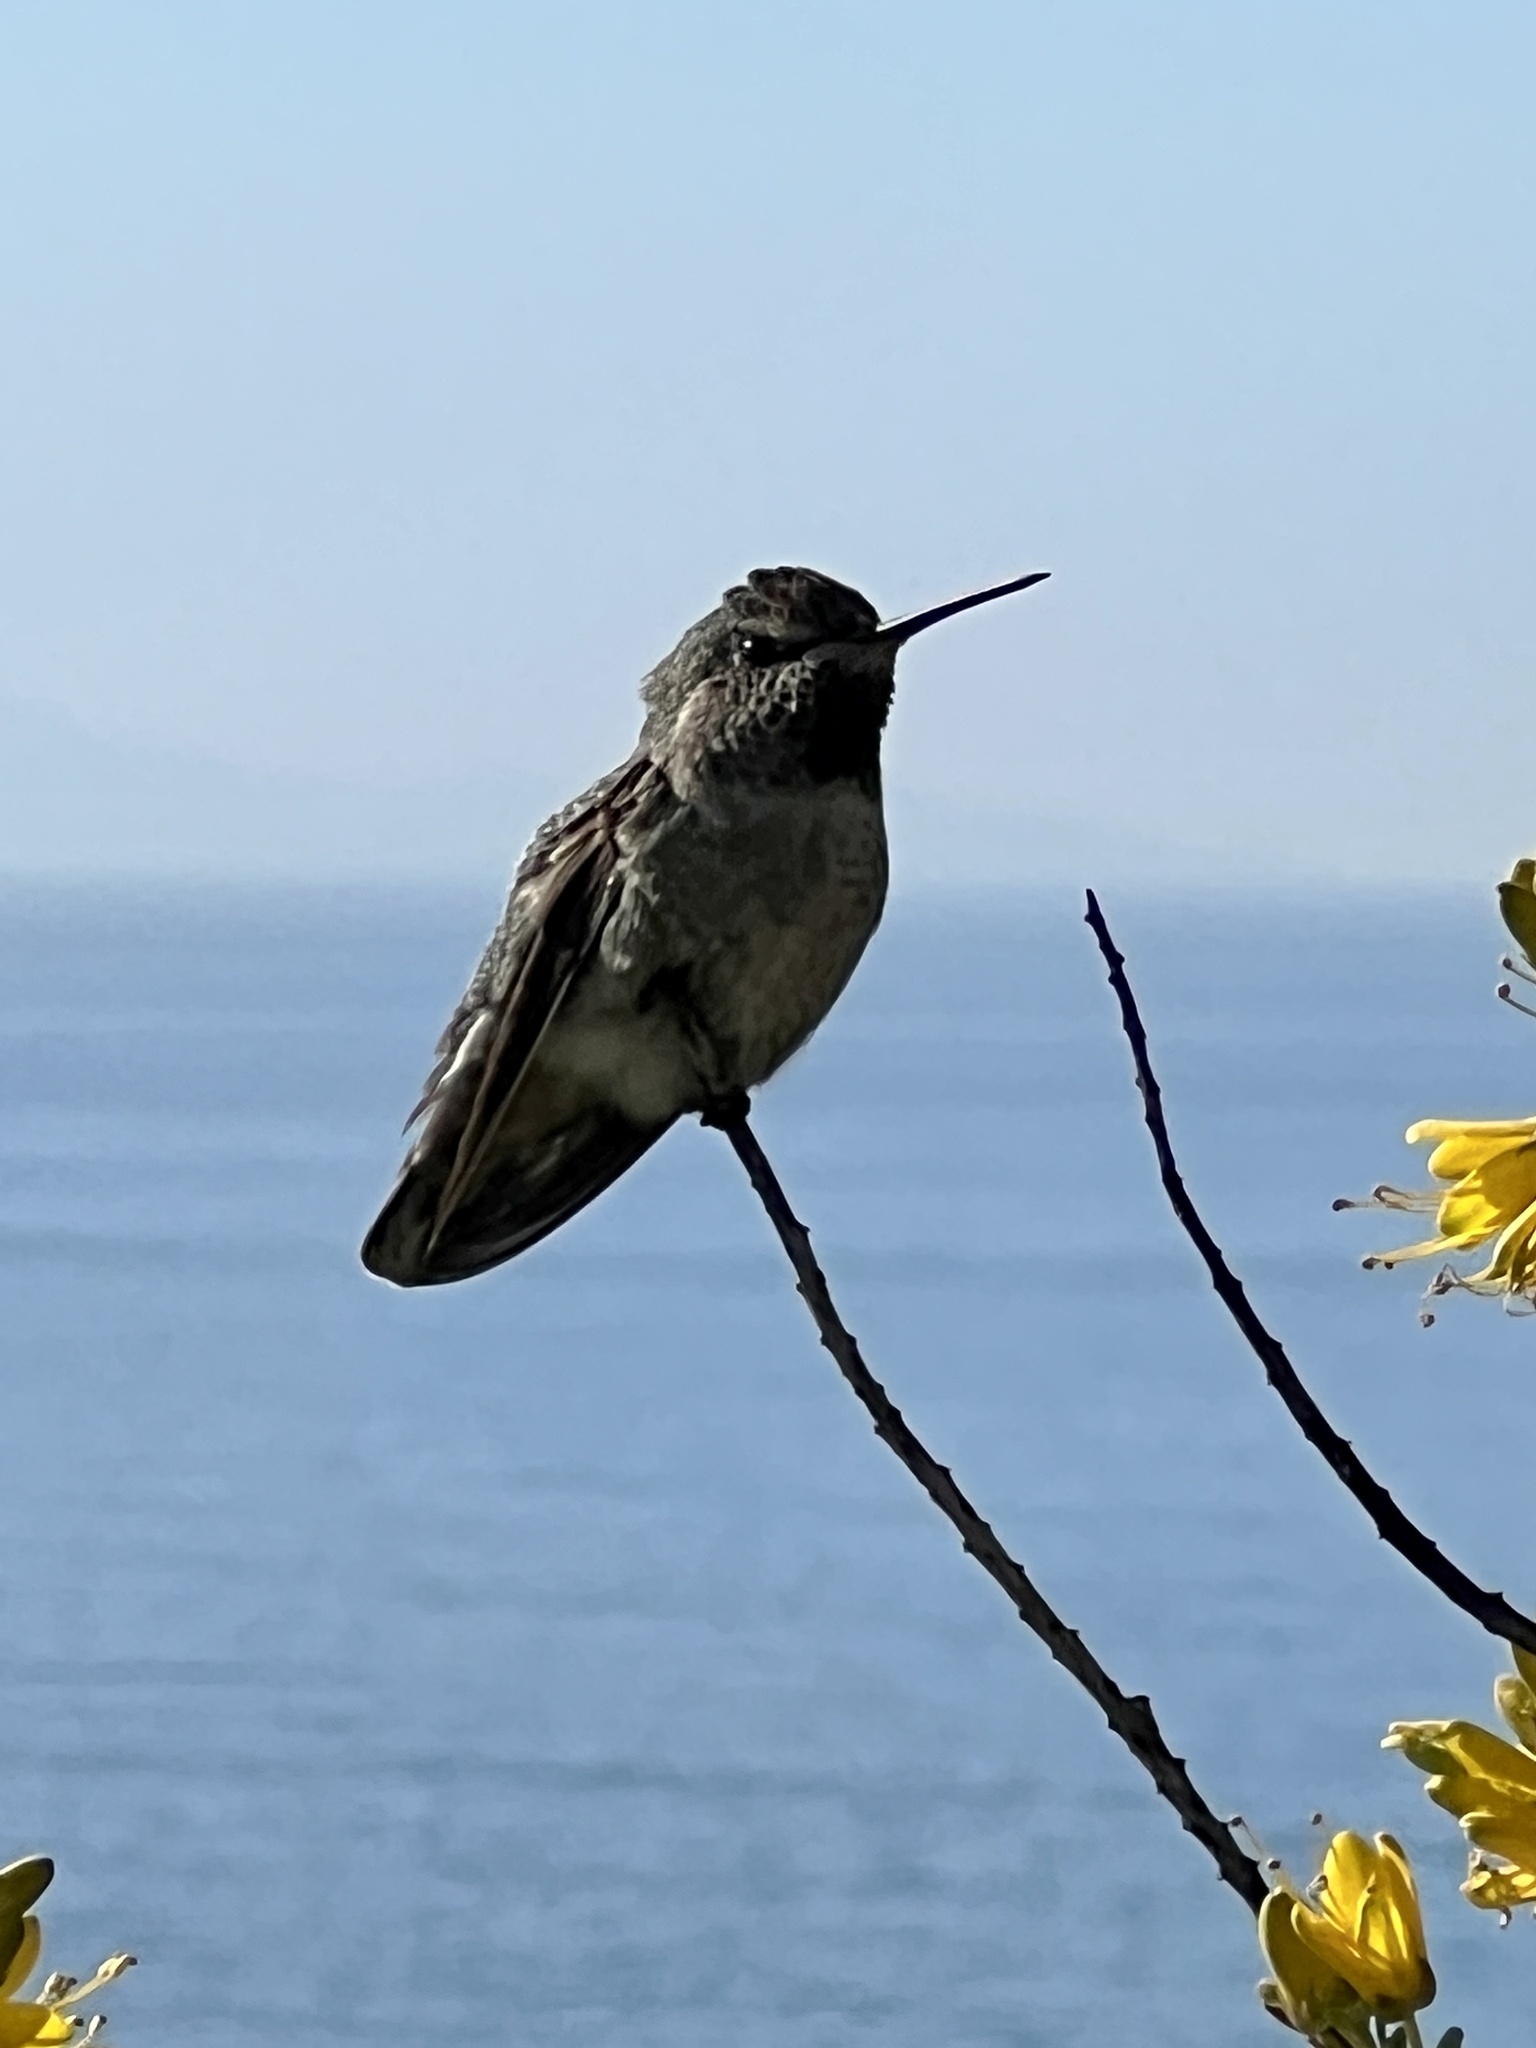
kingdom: Animalia
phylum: Chordata
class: Aves
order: Apodiformes
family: Trochilidae
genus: Calypte
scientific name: Calypte anna
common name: Anna's hummingbird
